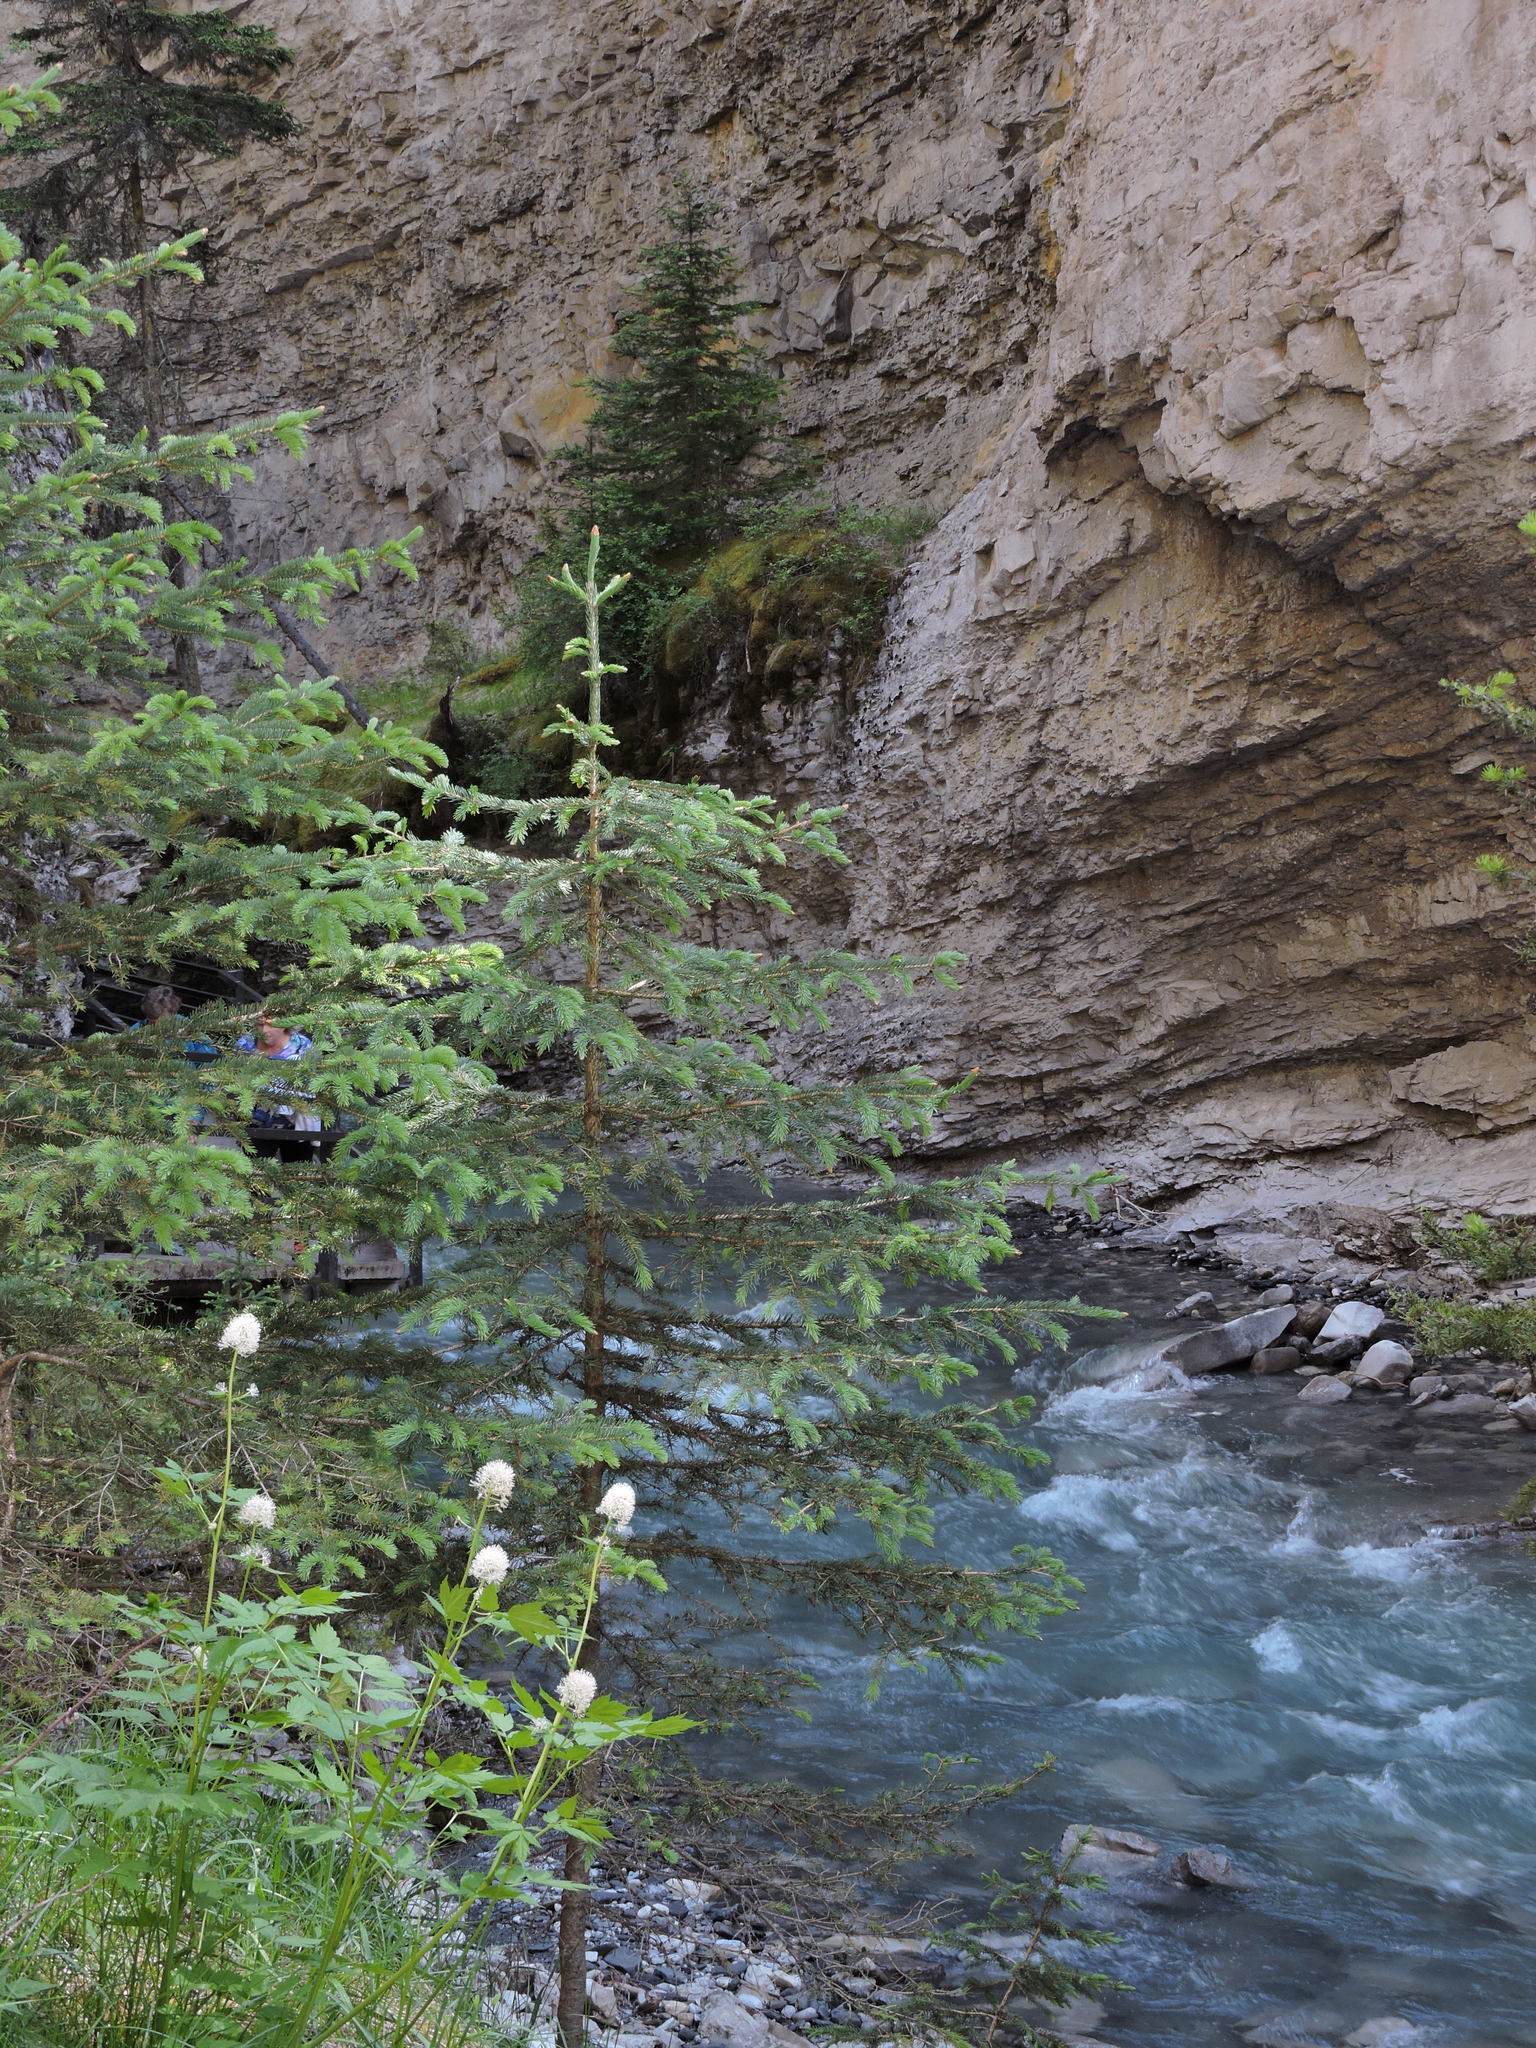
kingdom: Plantae
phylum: Tracheophyta
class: Magnoliopsida
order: Ranunculales
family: Ranunculaceae
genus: Actaea
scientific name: Actaea rubra
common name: Red baneberry
